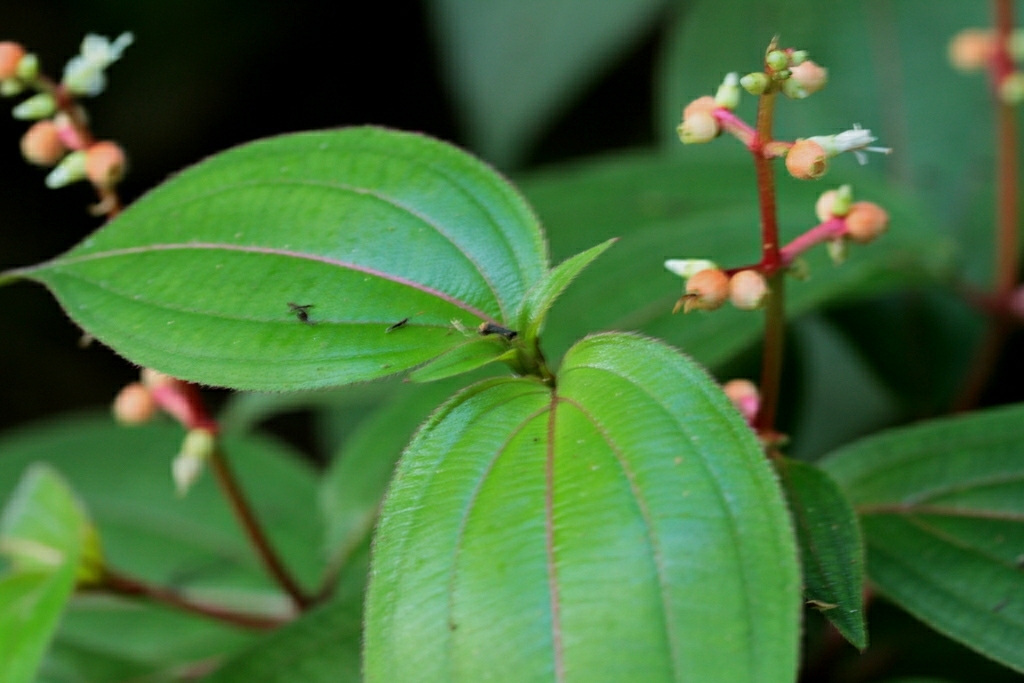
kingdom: Plantae
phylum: Tracheophyta
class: Magnoliopsida
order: Myrtales
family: Melastomataceae
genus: Miconia
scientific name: Miconia ceramicarpa
